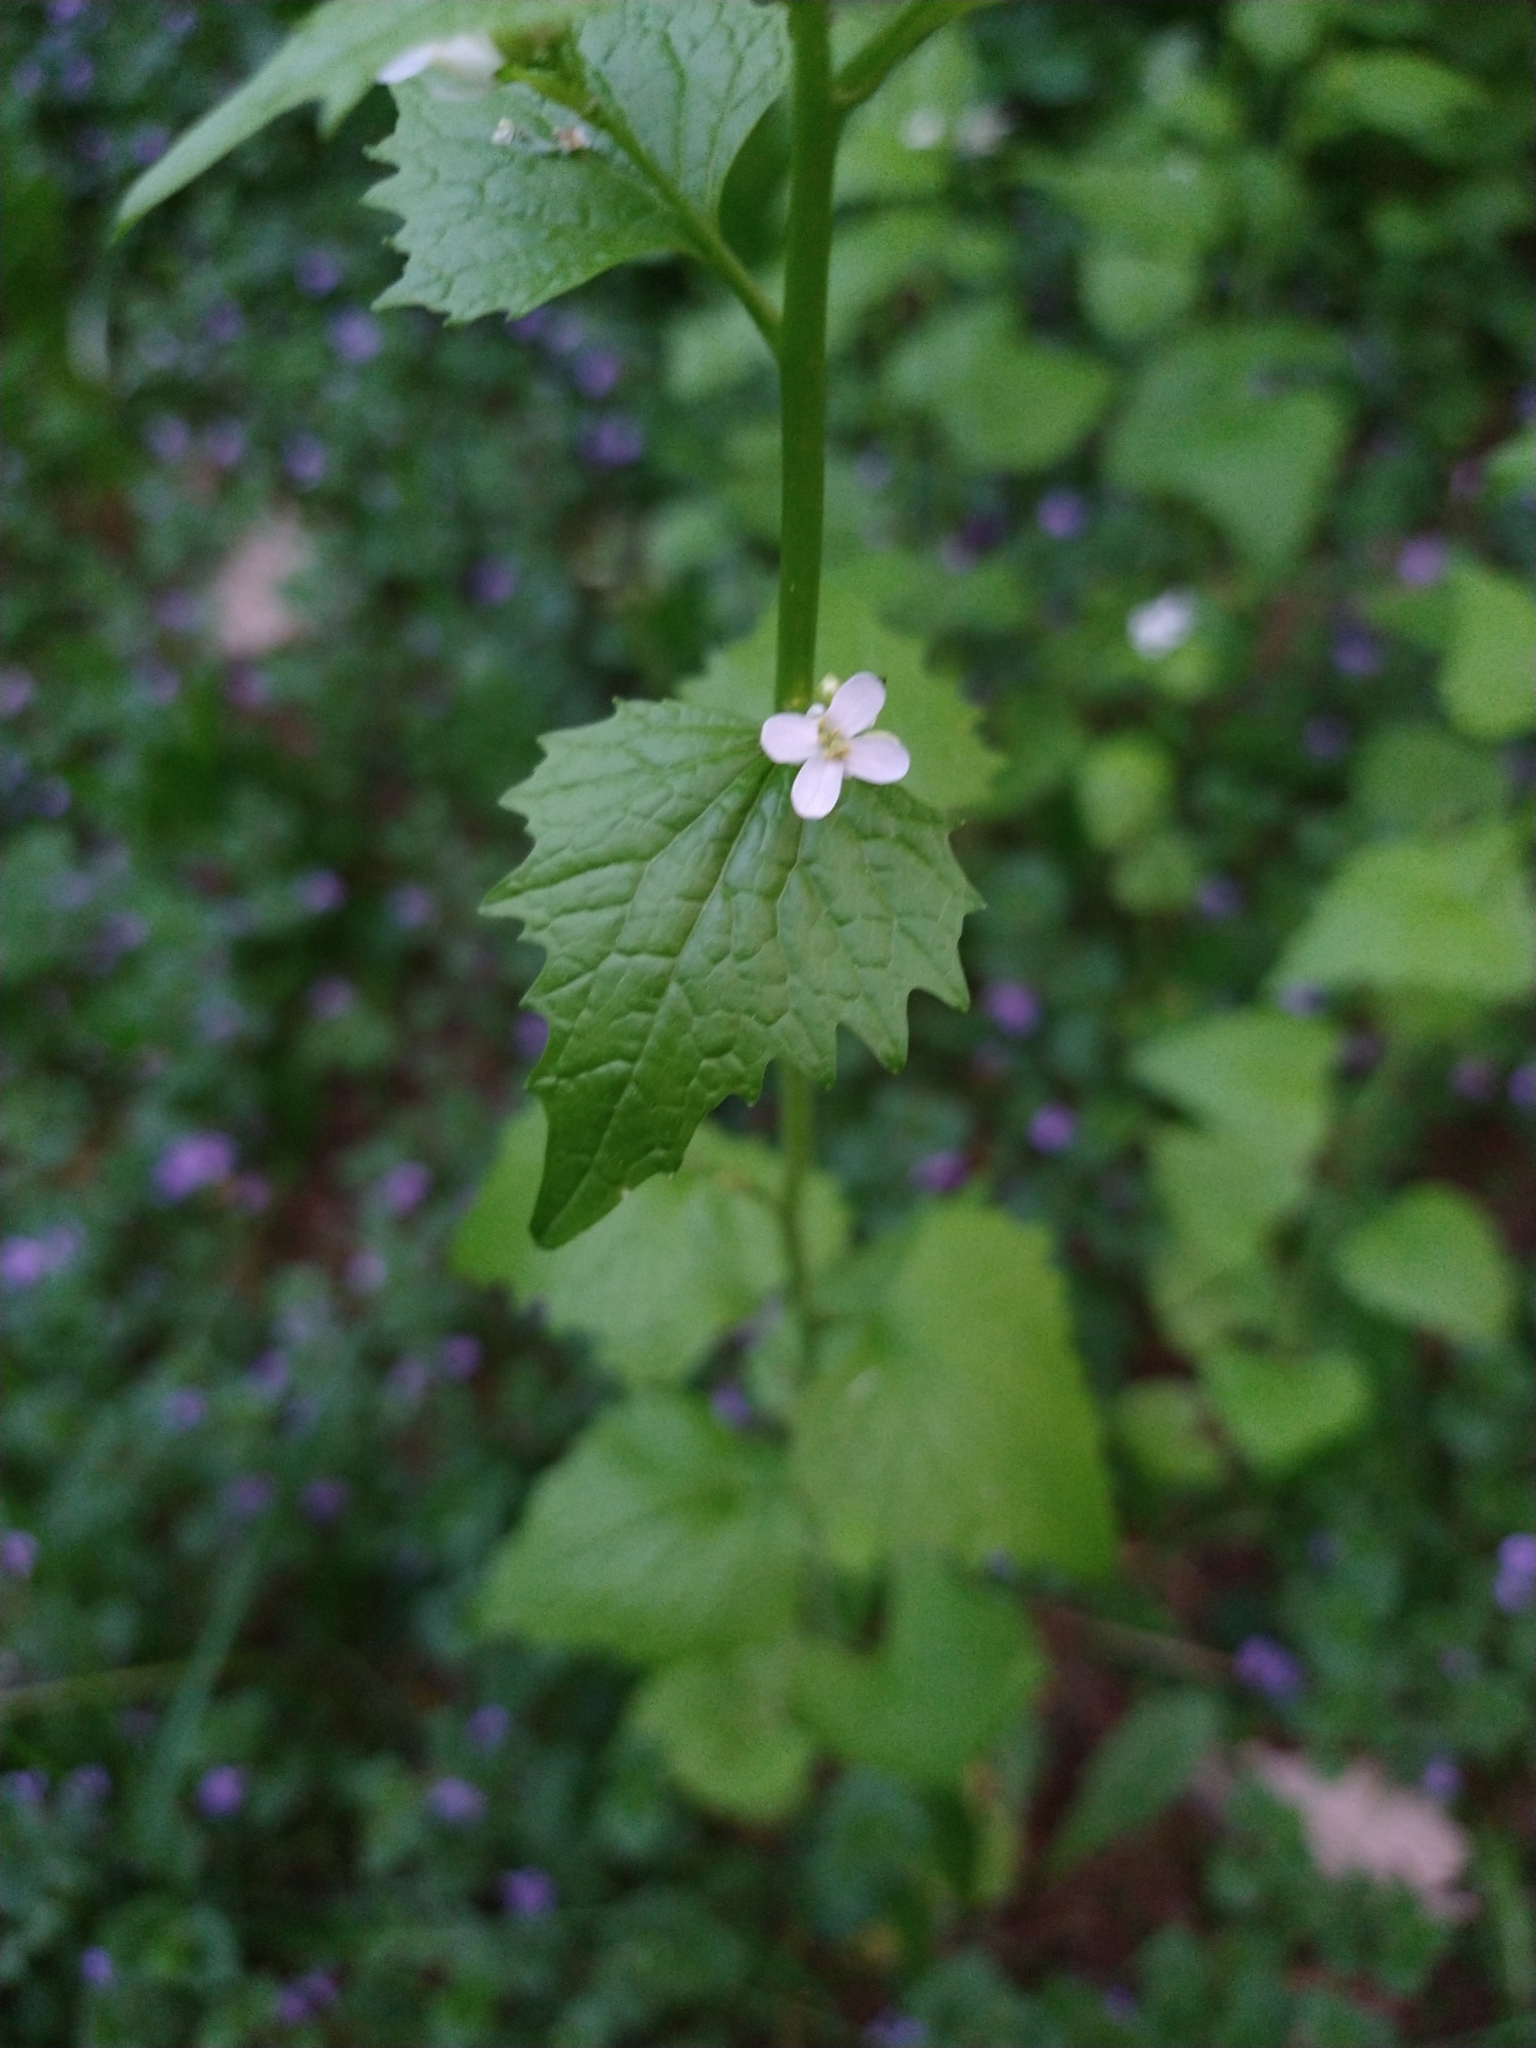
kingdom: Plantae
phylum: Tracheophyta
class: Magnoliopsida
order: Brassicales
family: Brassicaceae
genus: Alliaria
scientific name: Alliaria petiolata
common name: Garlic mustard
